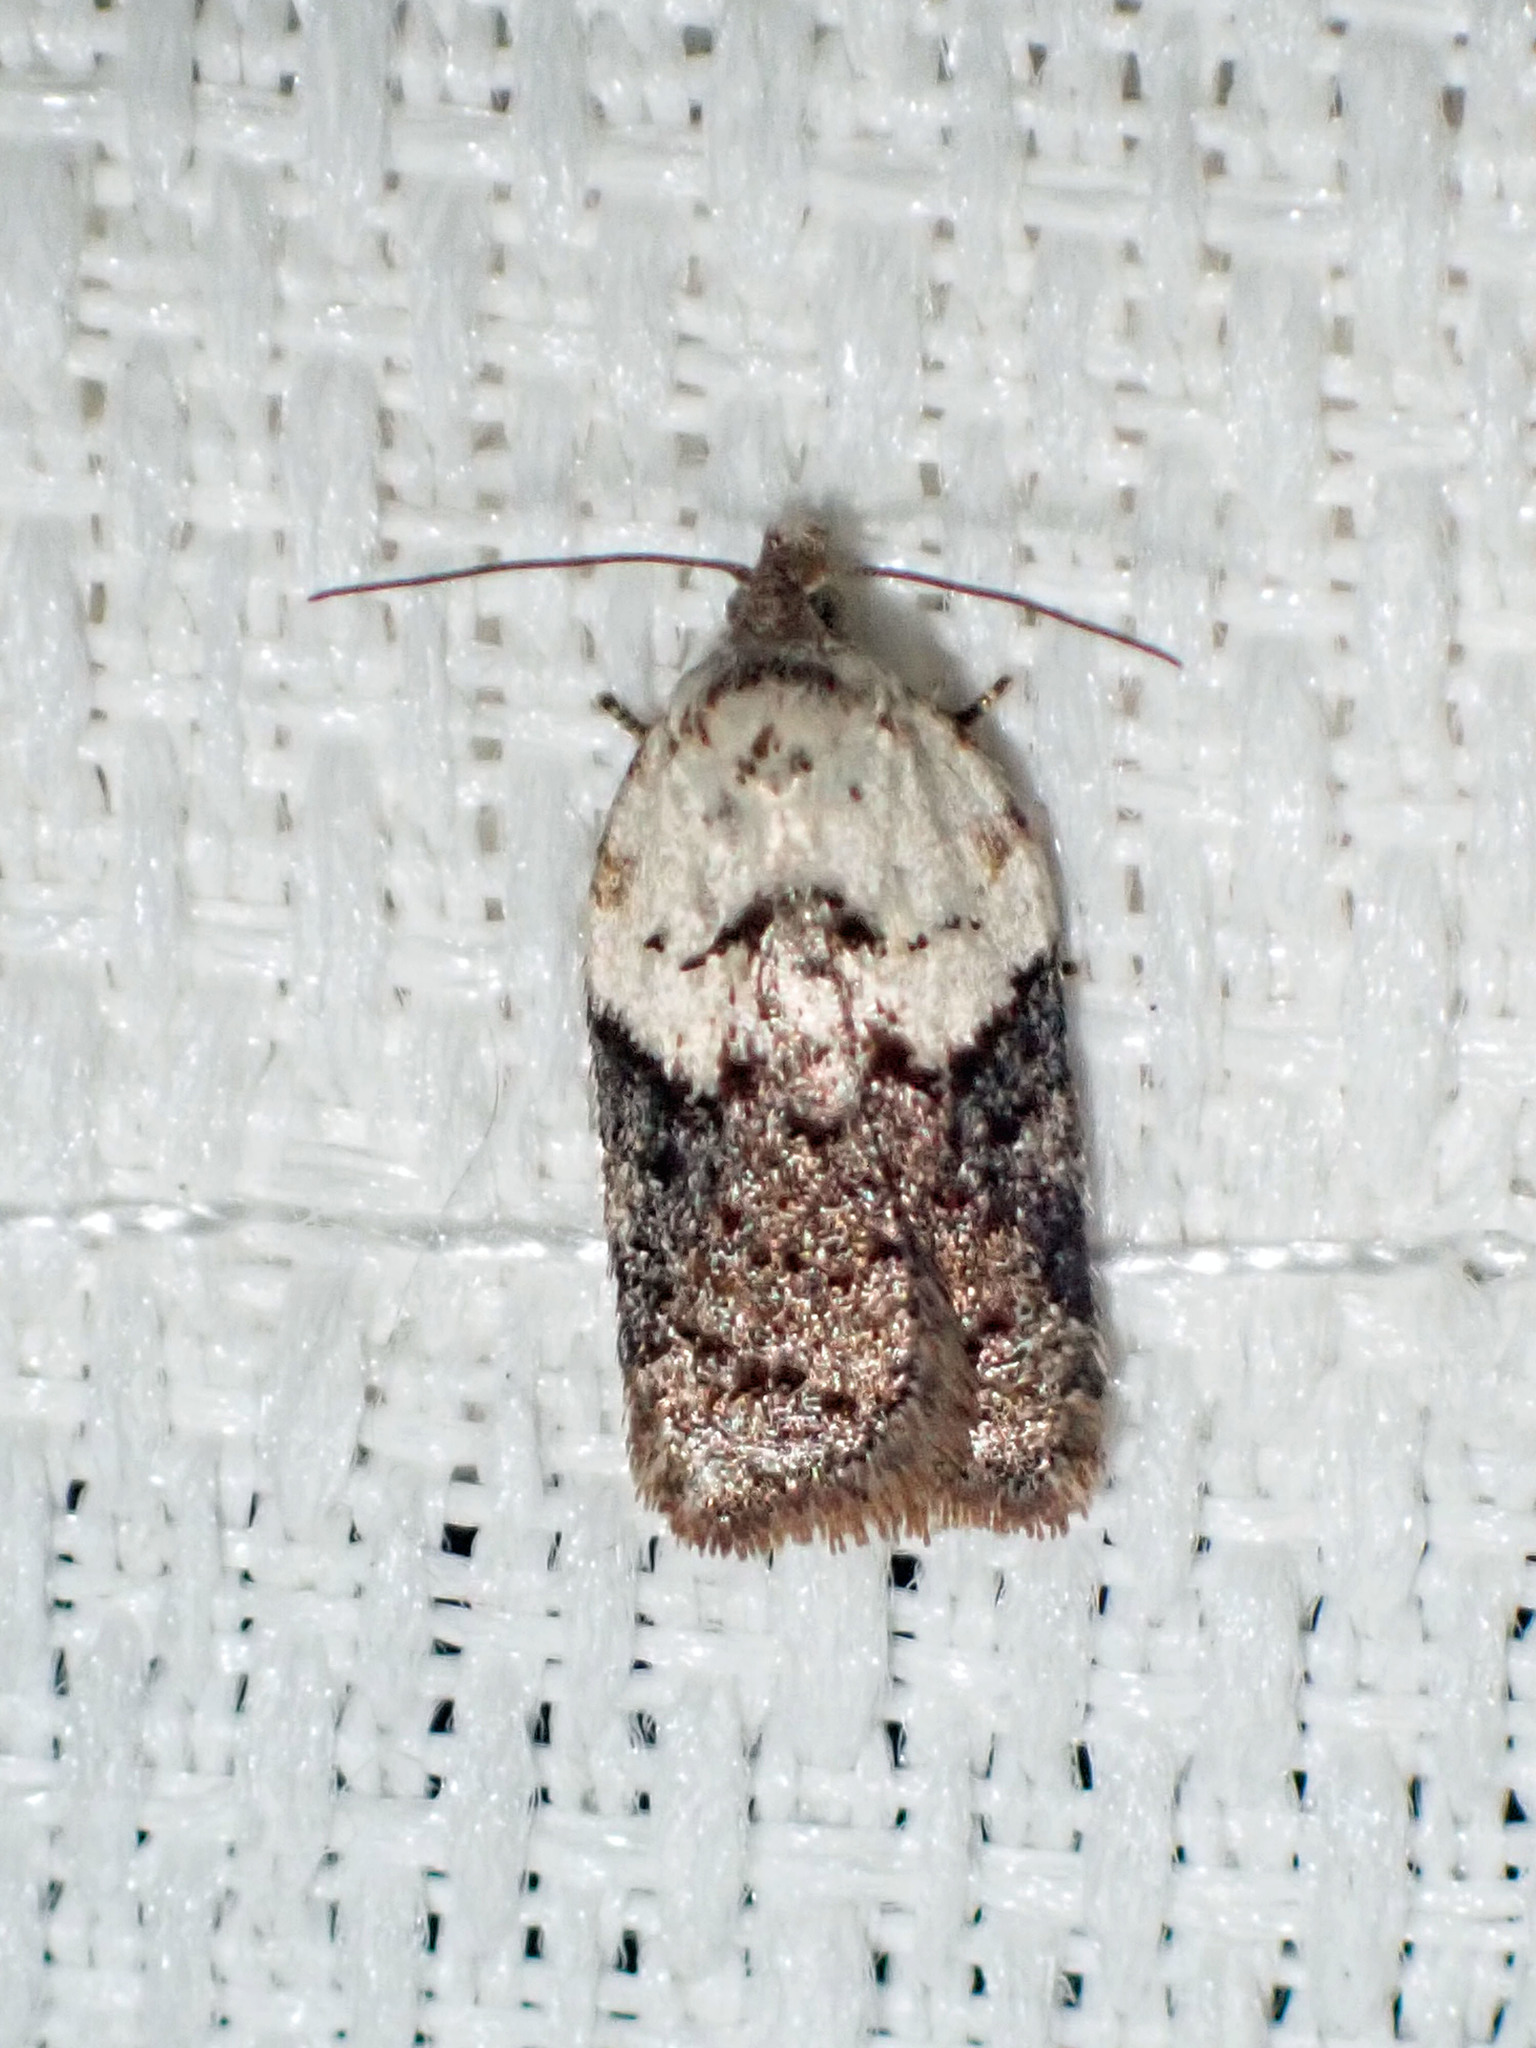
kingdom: Animalia
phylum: Arthropoda
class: Insecta
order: Lepidoptera
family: Tortricidae
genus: Acleris
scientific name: Acleris braunana
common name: Alder leafroller
